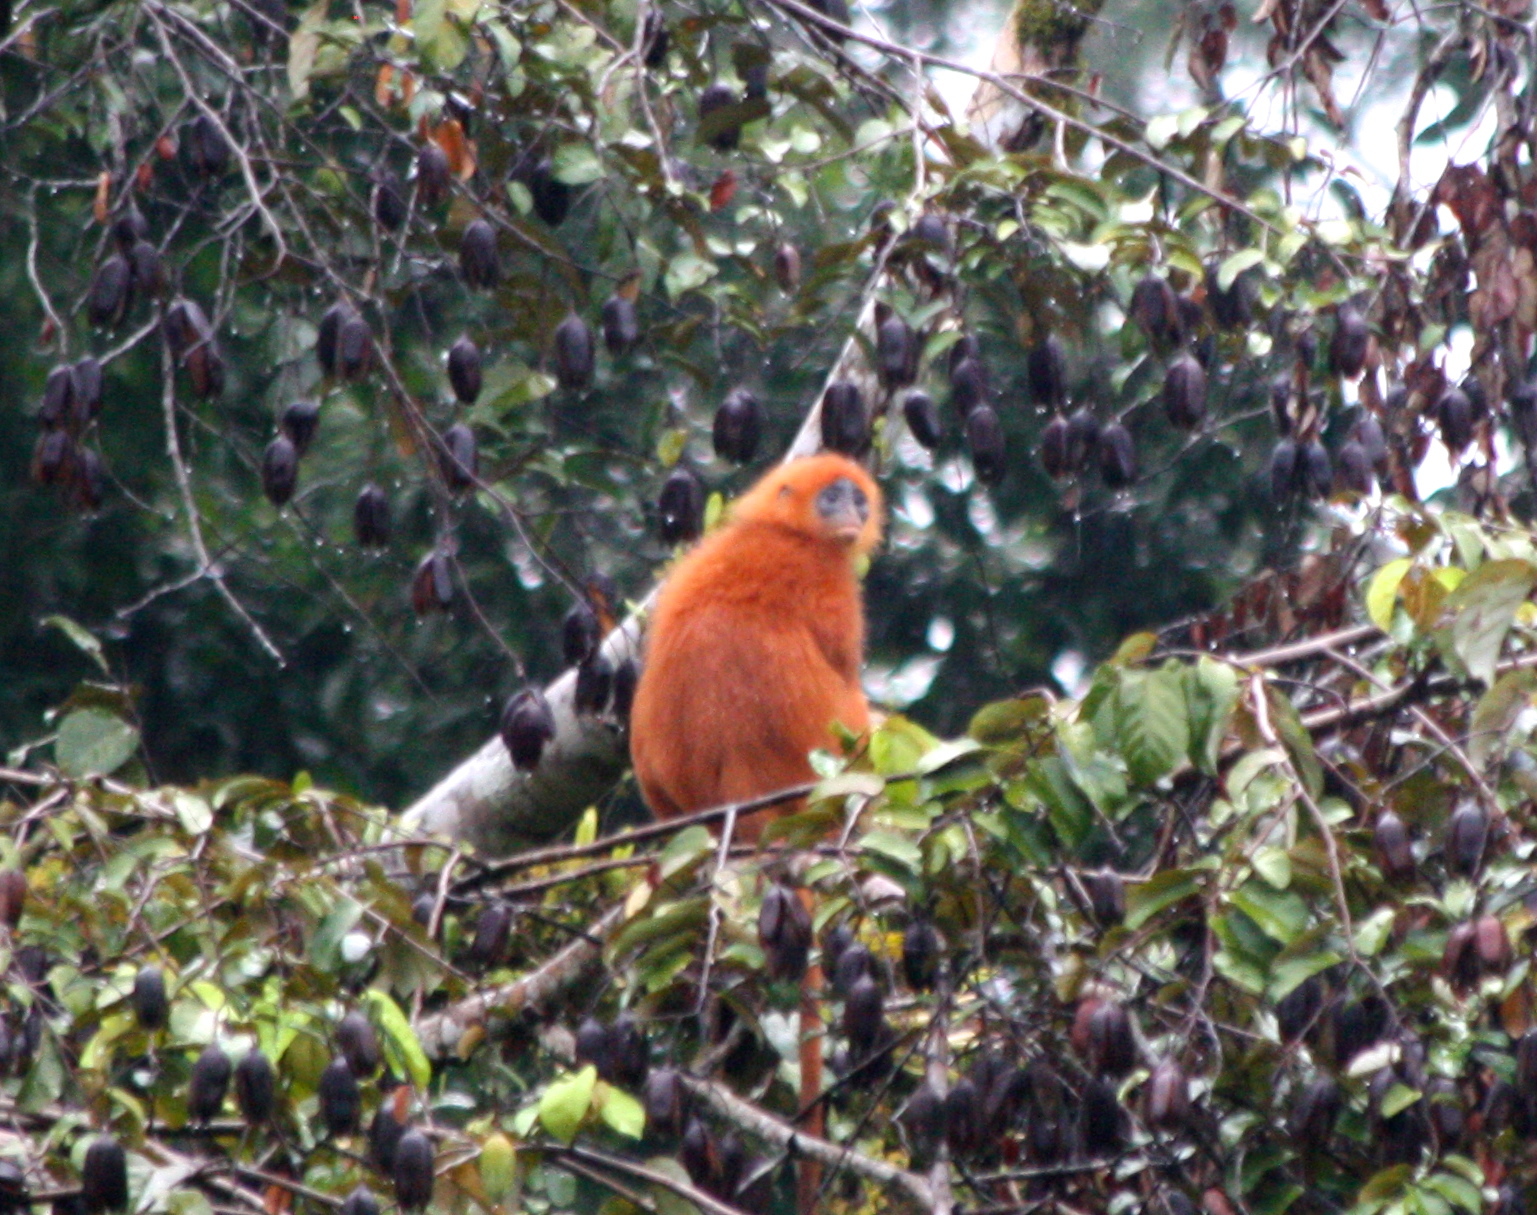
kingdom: Animalia
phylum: Chordata
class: Mammalia
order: Primates
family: Cercopithecidae
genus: Presbytis
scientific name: Presbytis rubicunda
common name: Maroon leaf monkey
